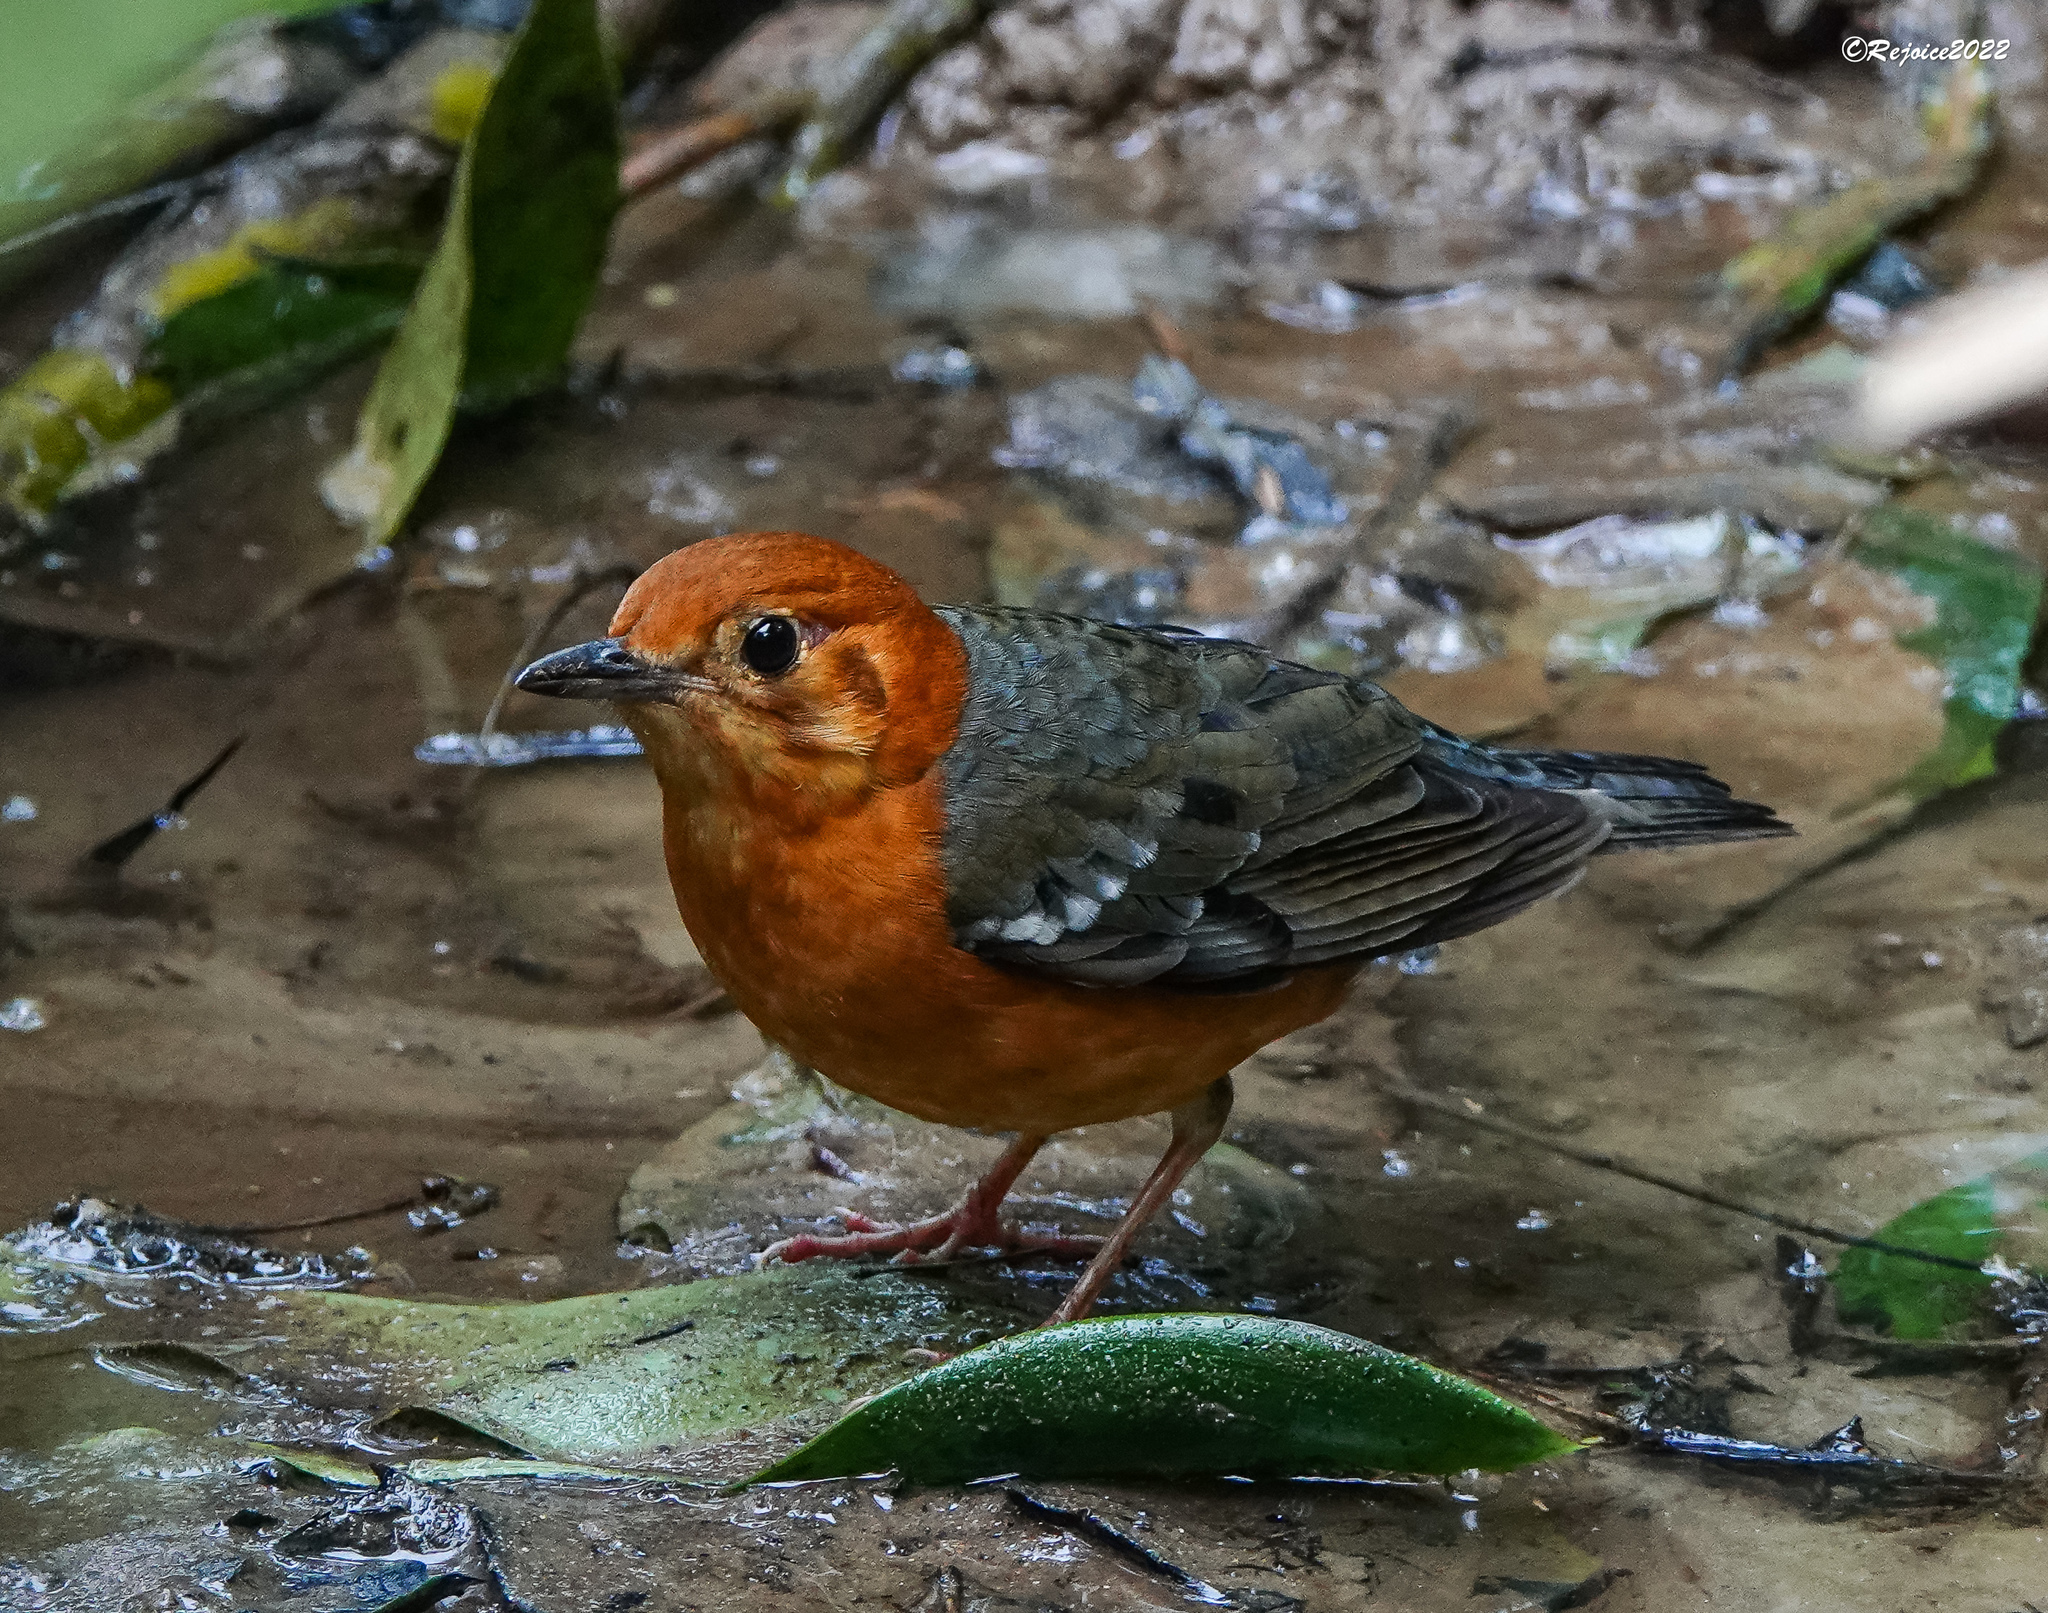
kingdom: Animalia
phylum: Chordata
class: Aves
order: Passeriformes
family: Turdidae
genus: Geokichla
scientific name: Geokichla citrina
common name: Orange-headed thrush
